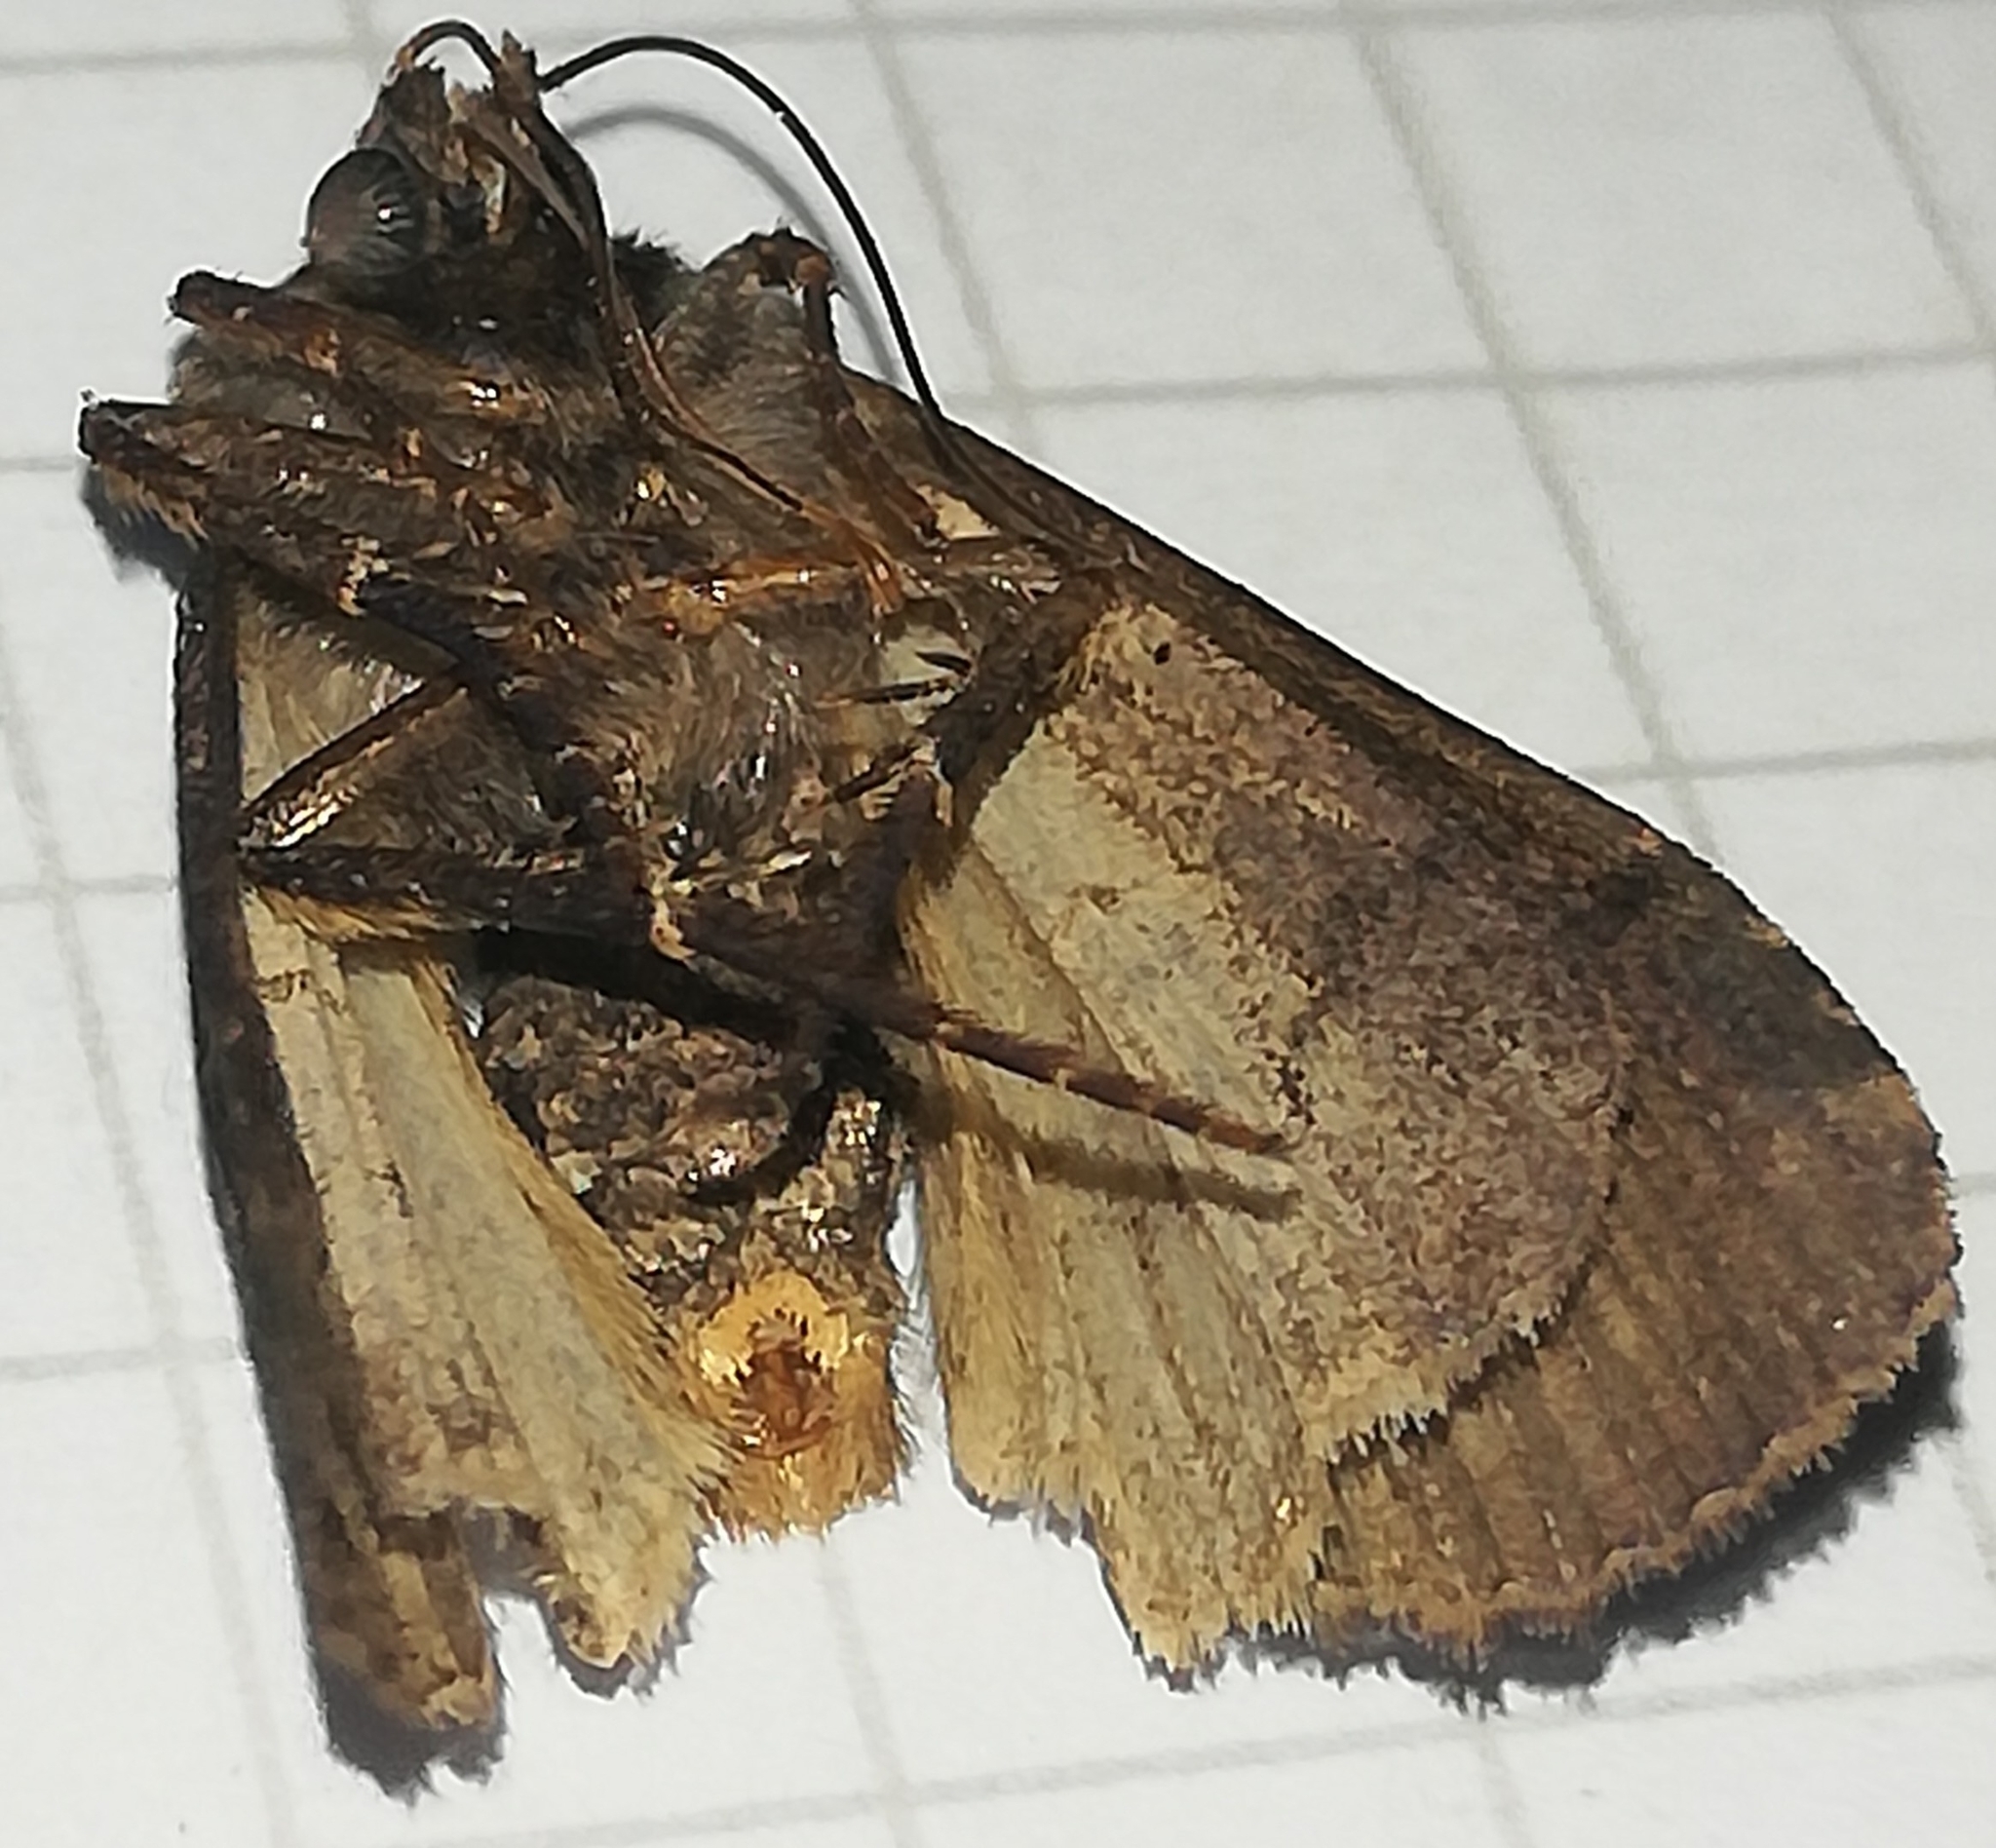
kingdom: Animalia
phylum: Arthropoda
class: Insecta
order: Lepidoptera
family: Noctuidae
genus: Xestia
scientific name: Xestia c-nigrum
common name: Setaceous hebrew character
